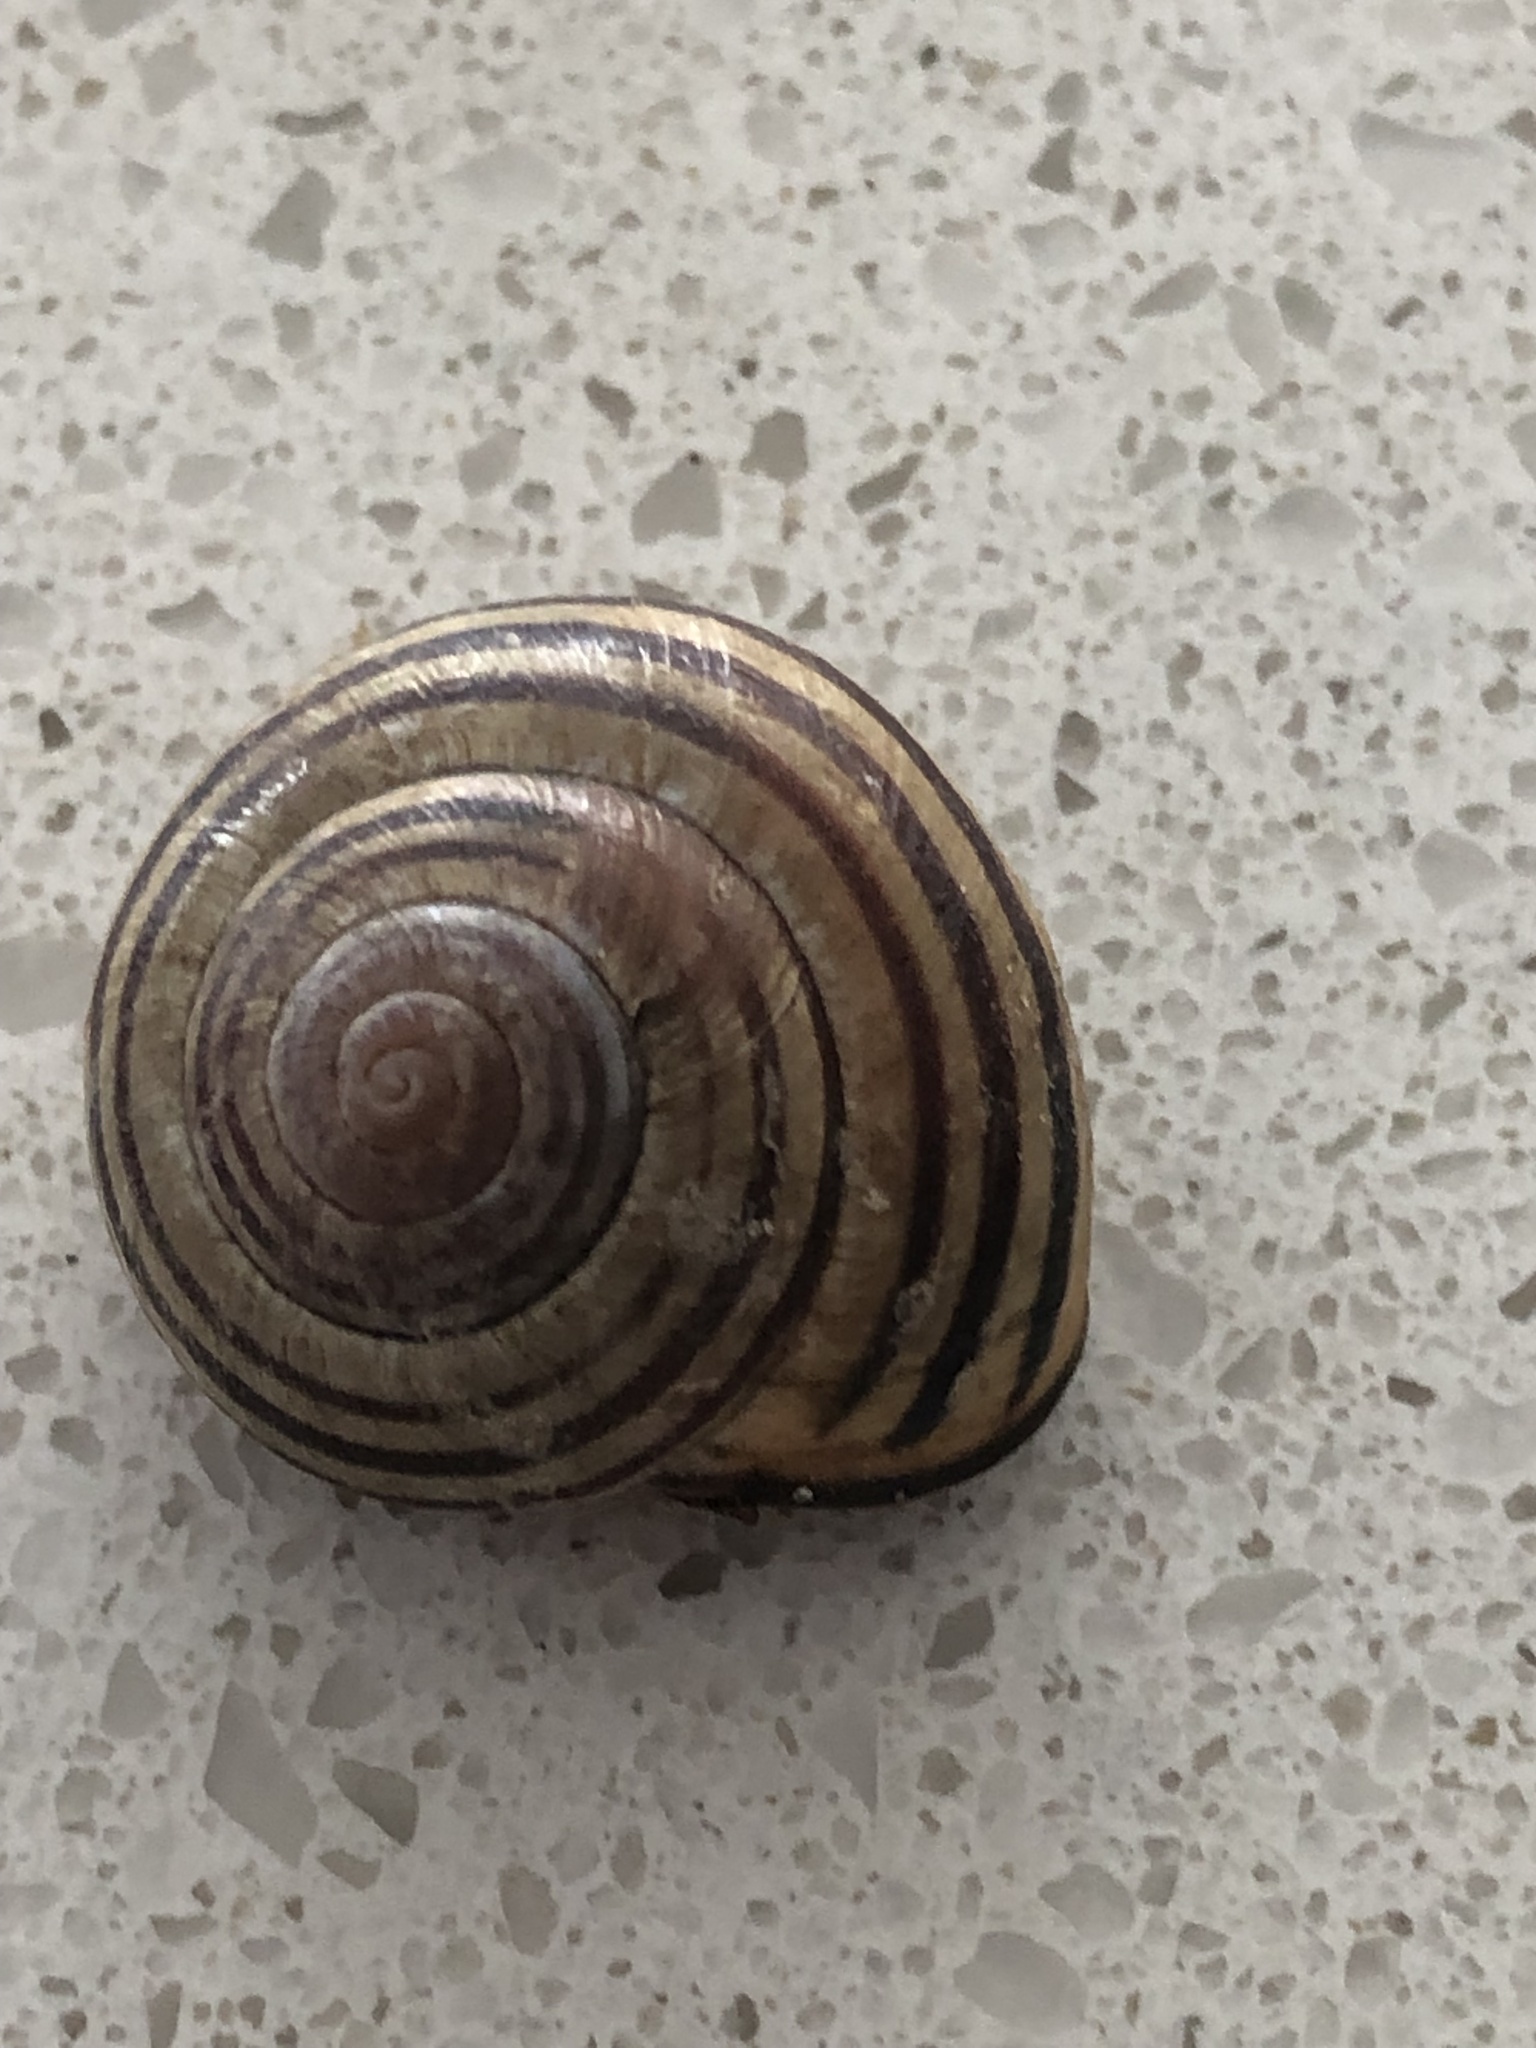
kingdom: Animalia
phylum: Mollusca
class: Gastropoda
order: Stylommatophora
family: Helicidae
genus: Cepaea
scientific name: Cepaea nemoralis
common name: Grovesnail
